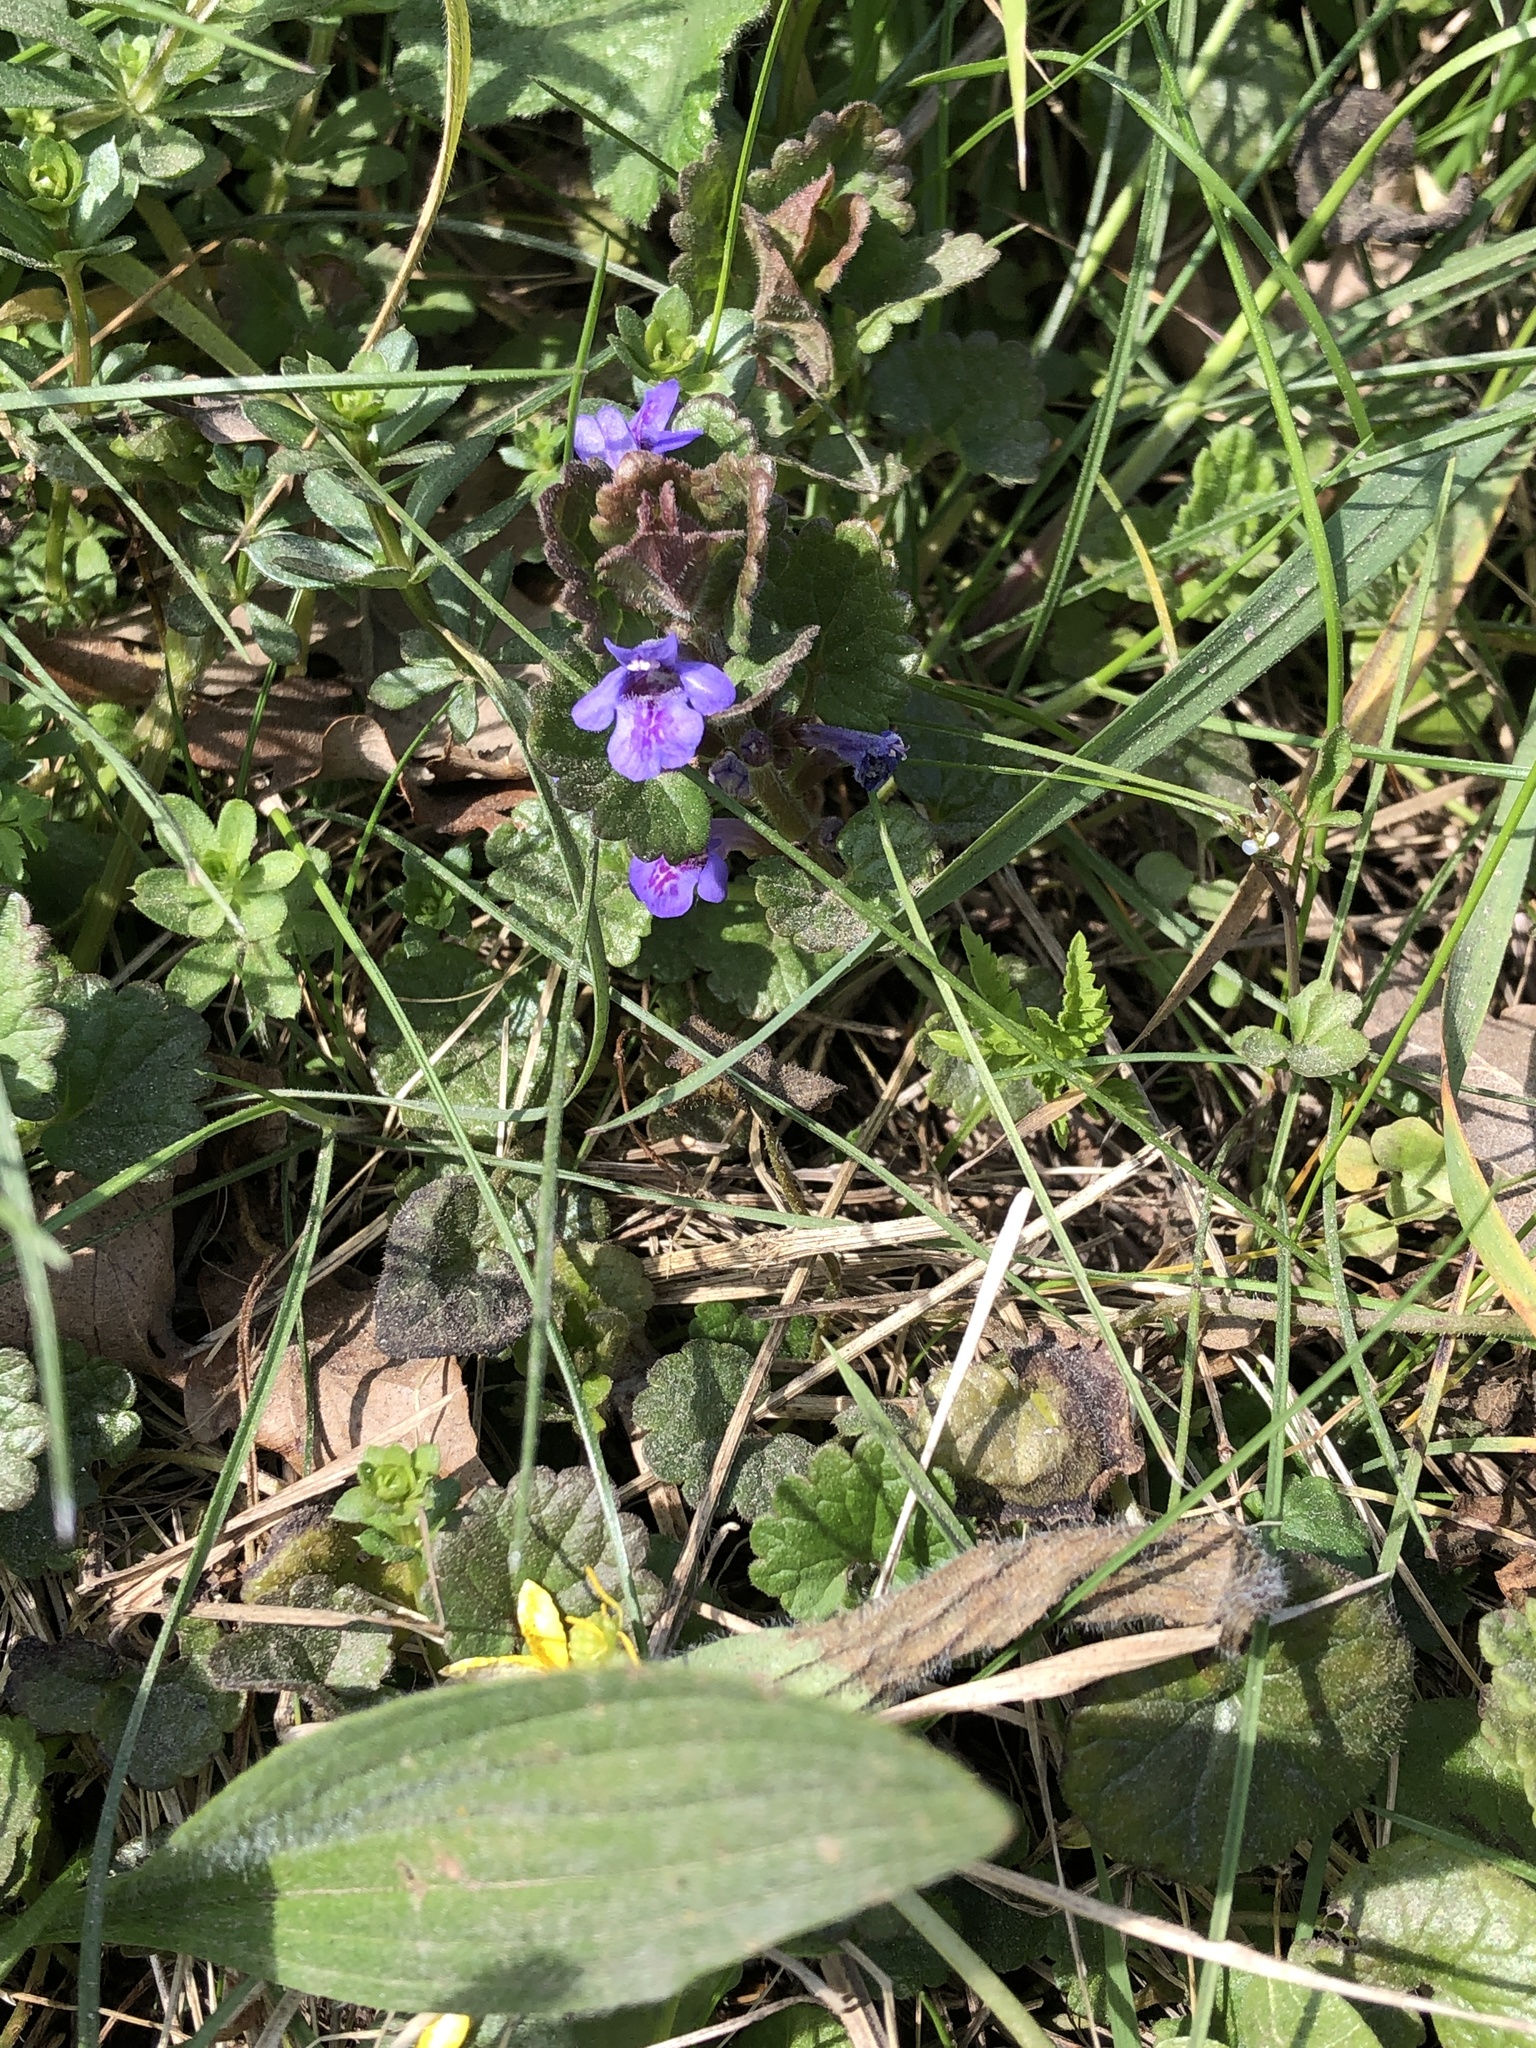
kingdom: Plantae
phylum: Tracheophyta
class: Magnoliopsida
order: Lamiales
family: Lamiaceae
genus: Glechoma
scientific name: Glechoma hederacea
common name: Ground ivy
